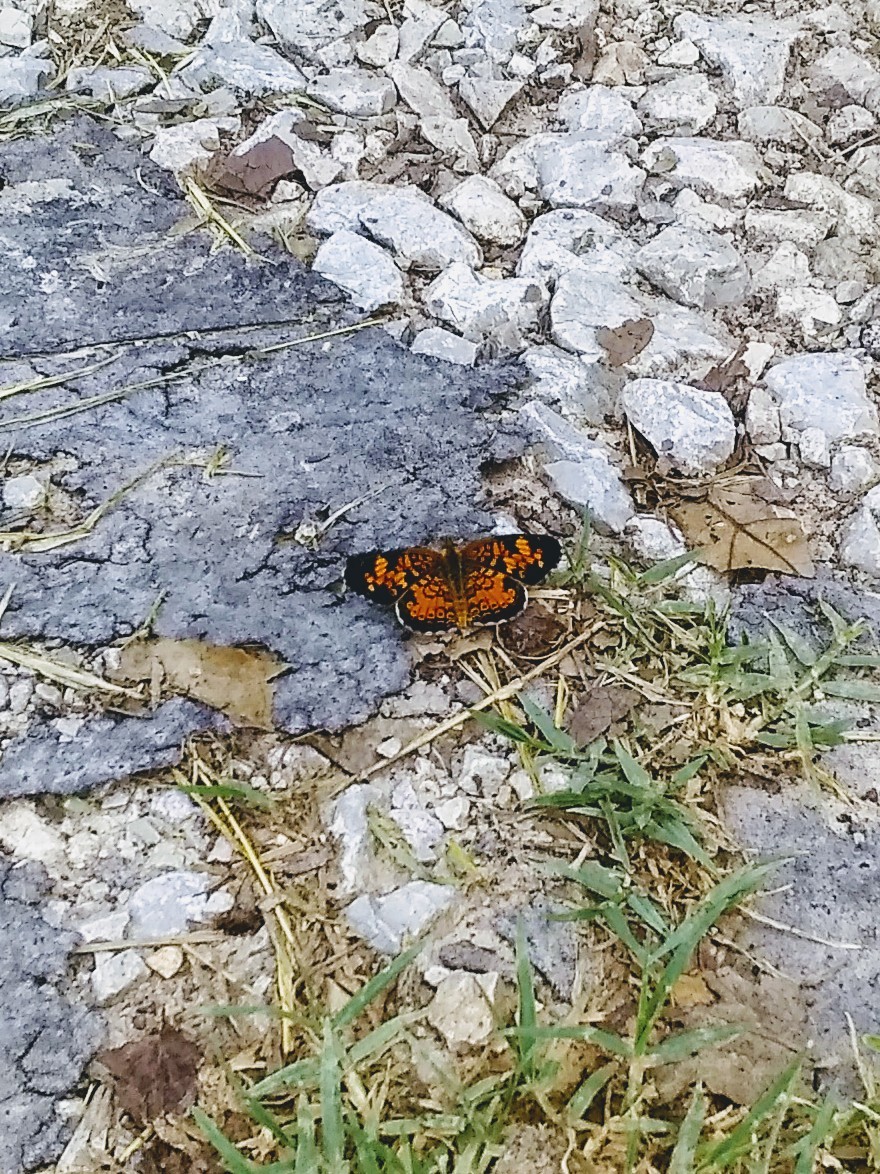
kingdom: Animalia
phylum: Arthropoda
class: Insecta
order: Lepidoptera
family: Nymphalidae
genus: Phyciodes
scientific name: Phyciodes tharos
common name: Pearl crescent
